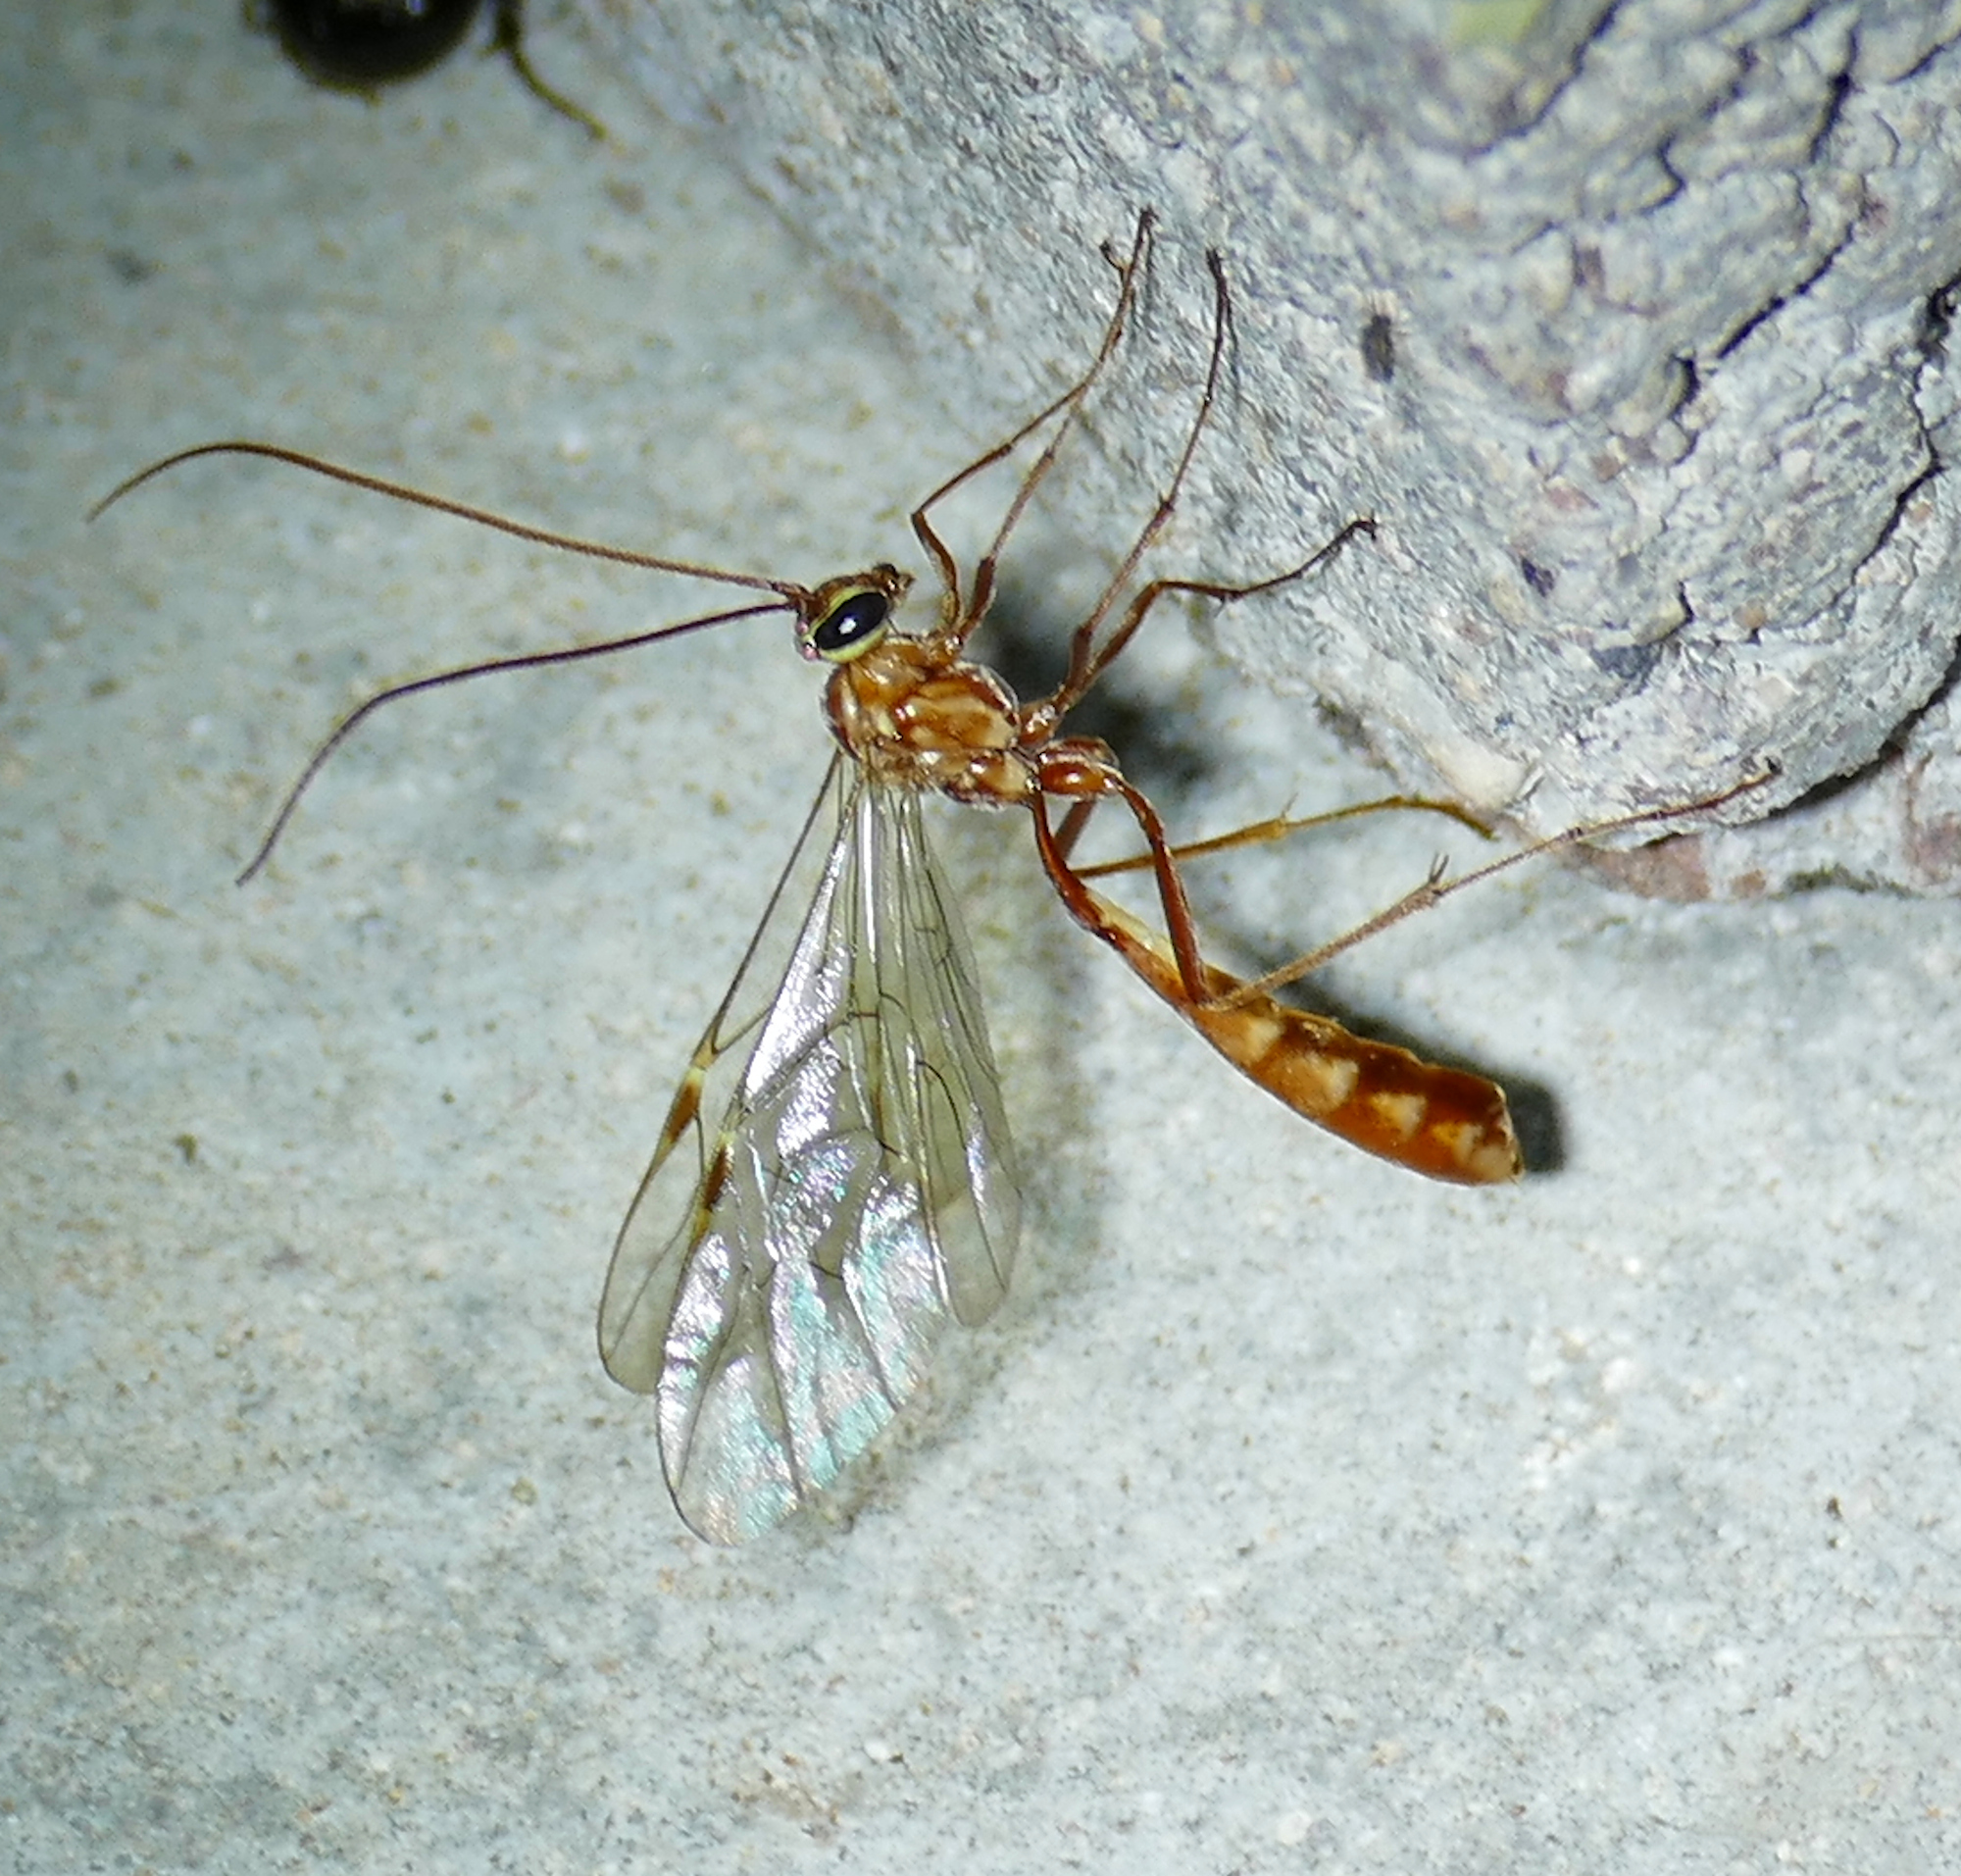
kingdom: Animalia
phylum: Arthropoda
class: Insecta
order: Hymenoptera
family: Ichneumonidae
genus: Ophion
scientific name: Ophion
